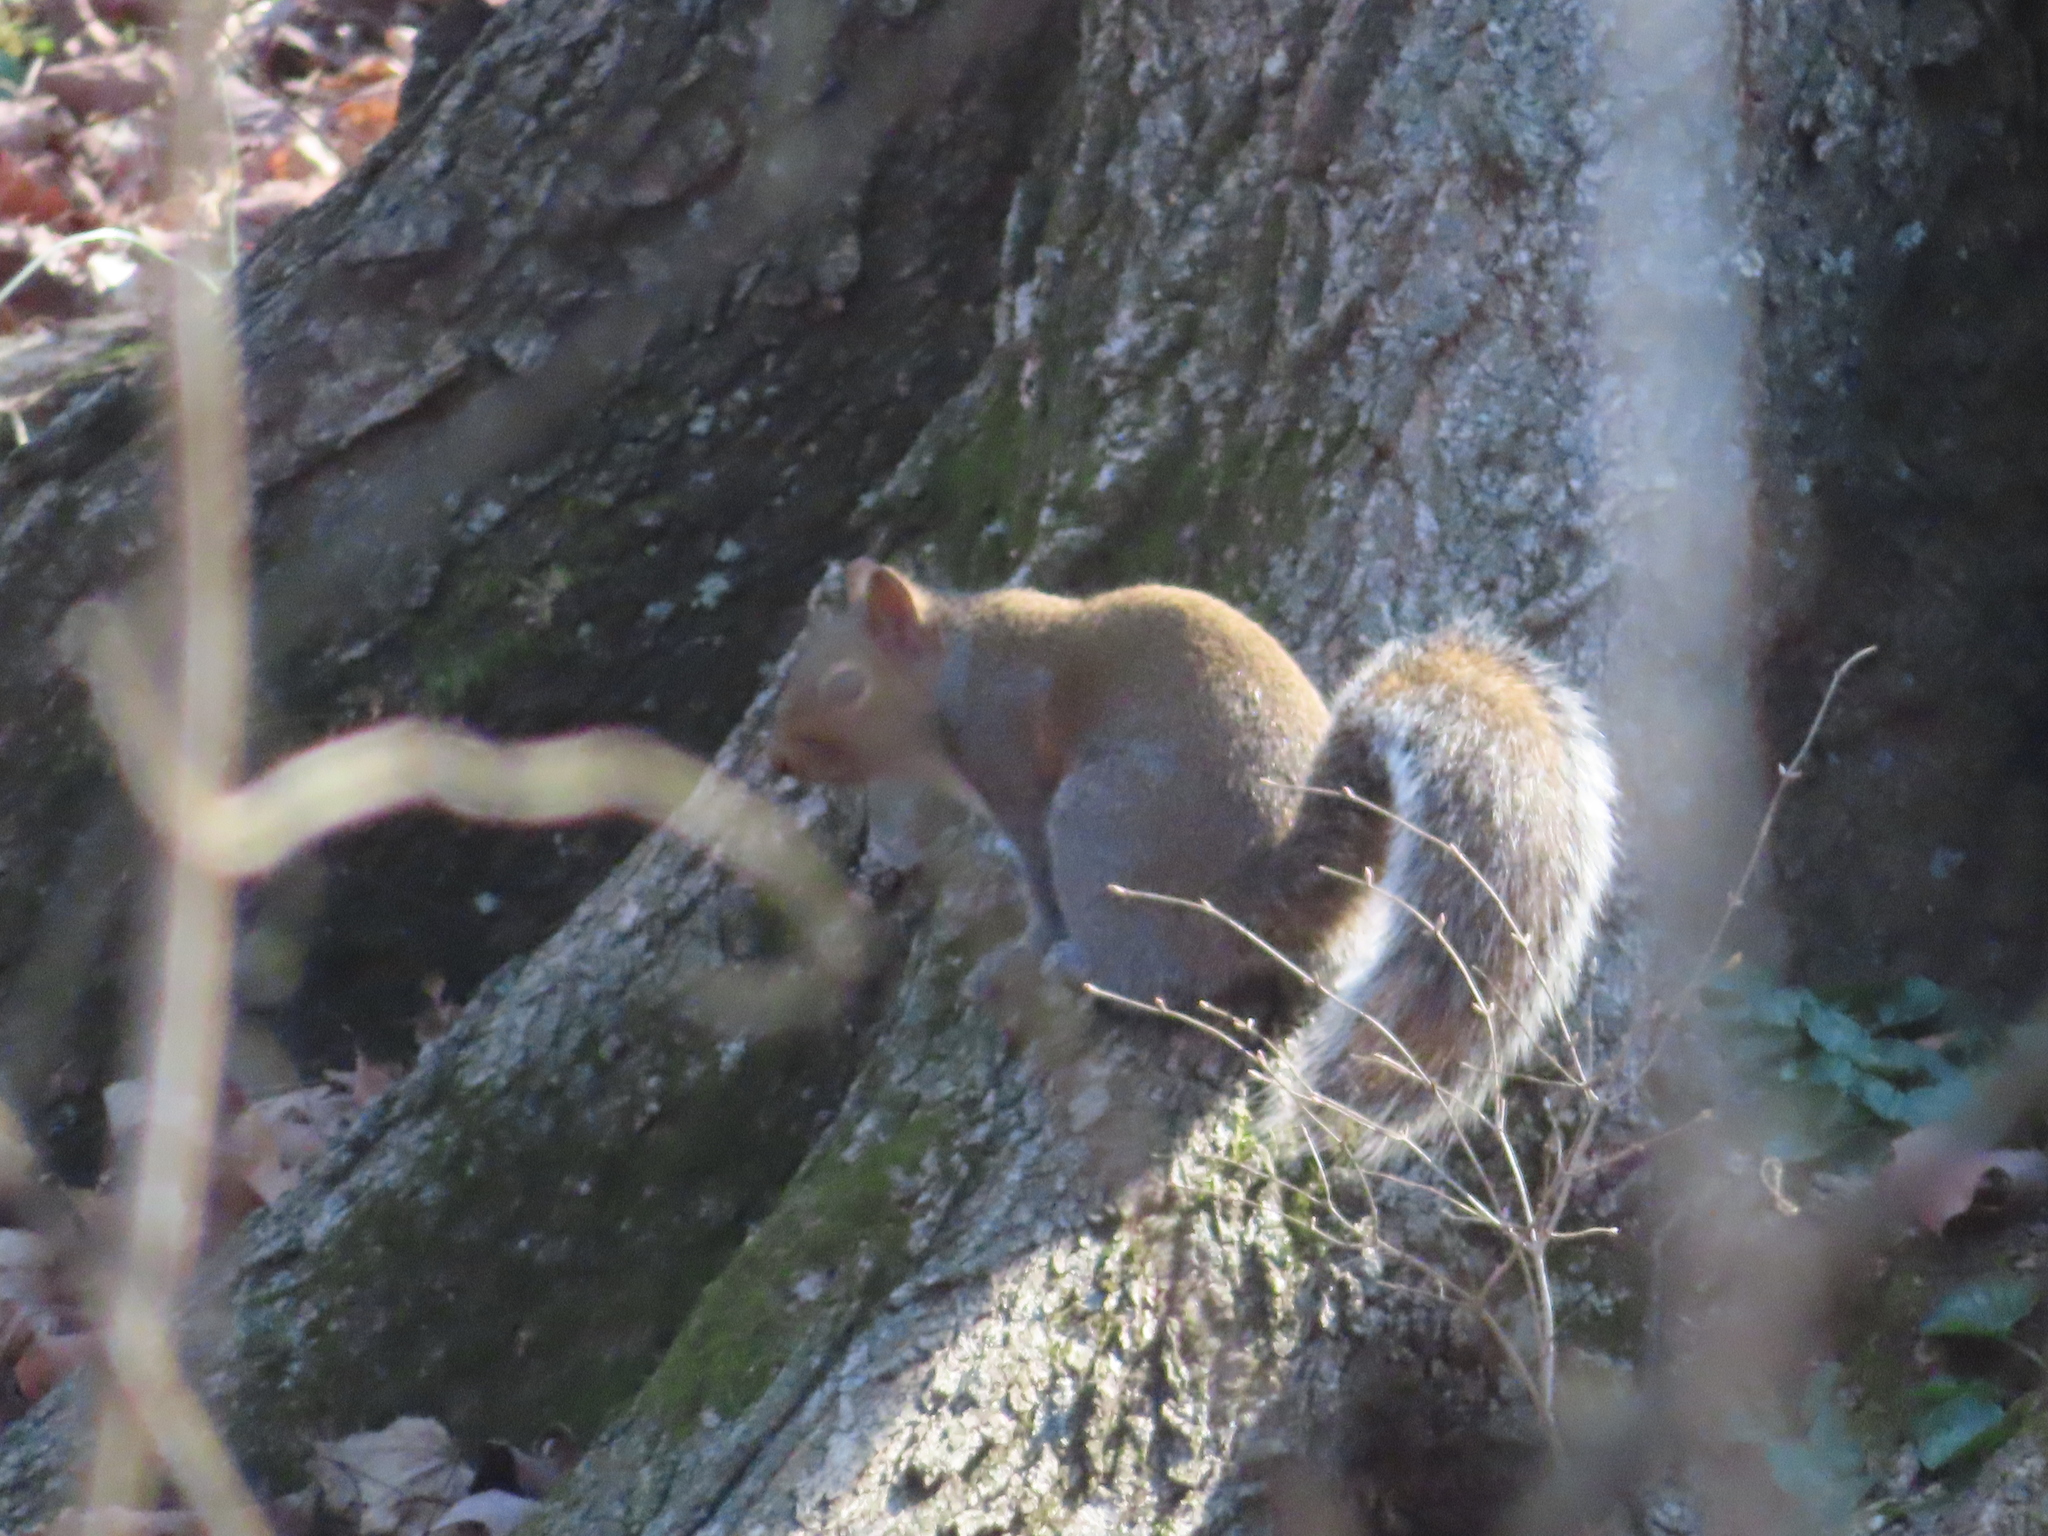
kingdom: Animalia
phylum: Chordata
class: Mammalia
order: Rodentia
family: Sciuridae
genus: Sciurus
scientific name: Sciurus carolinensis
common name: Eastern gray squirrel
